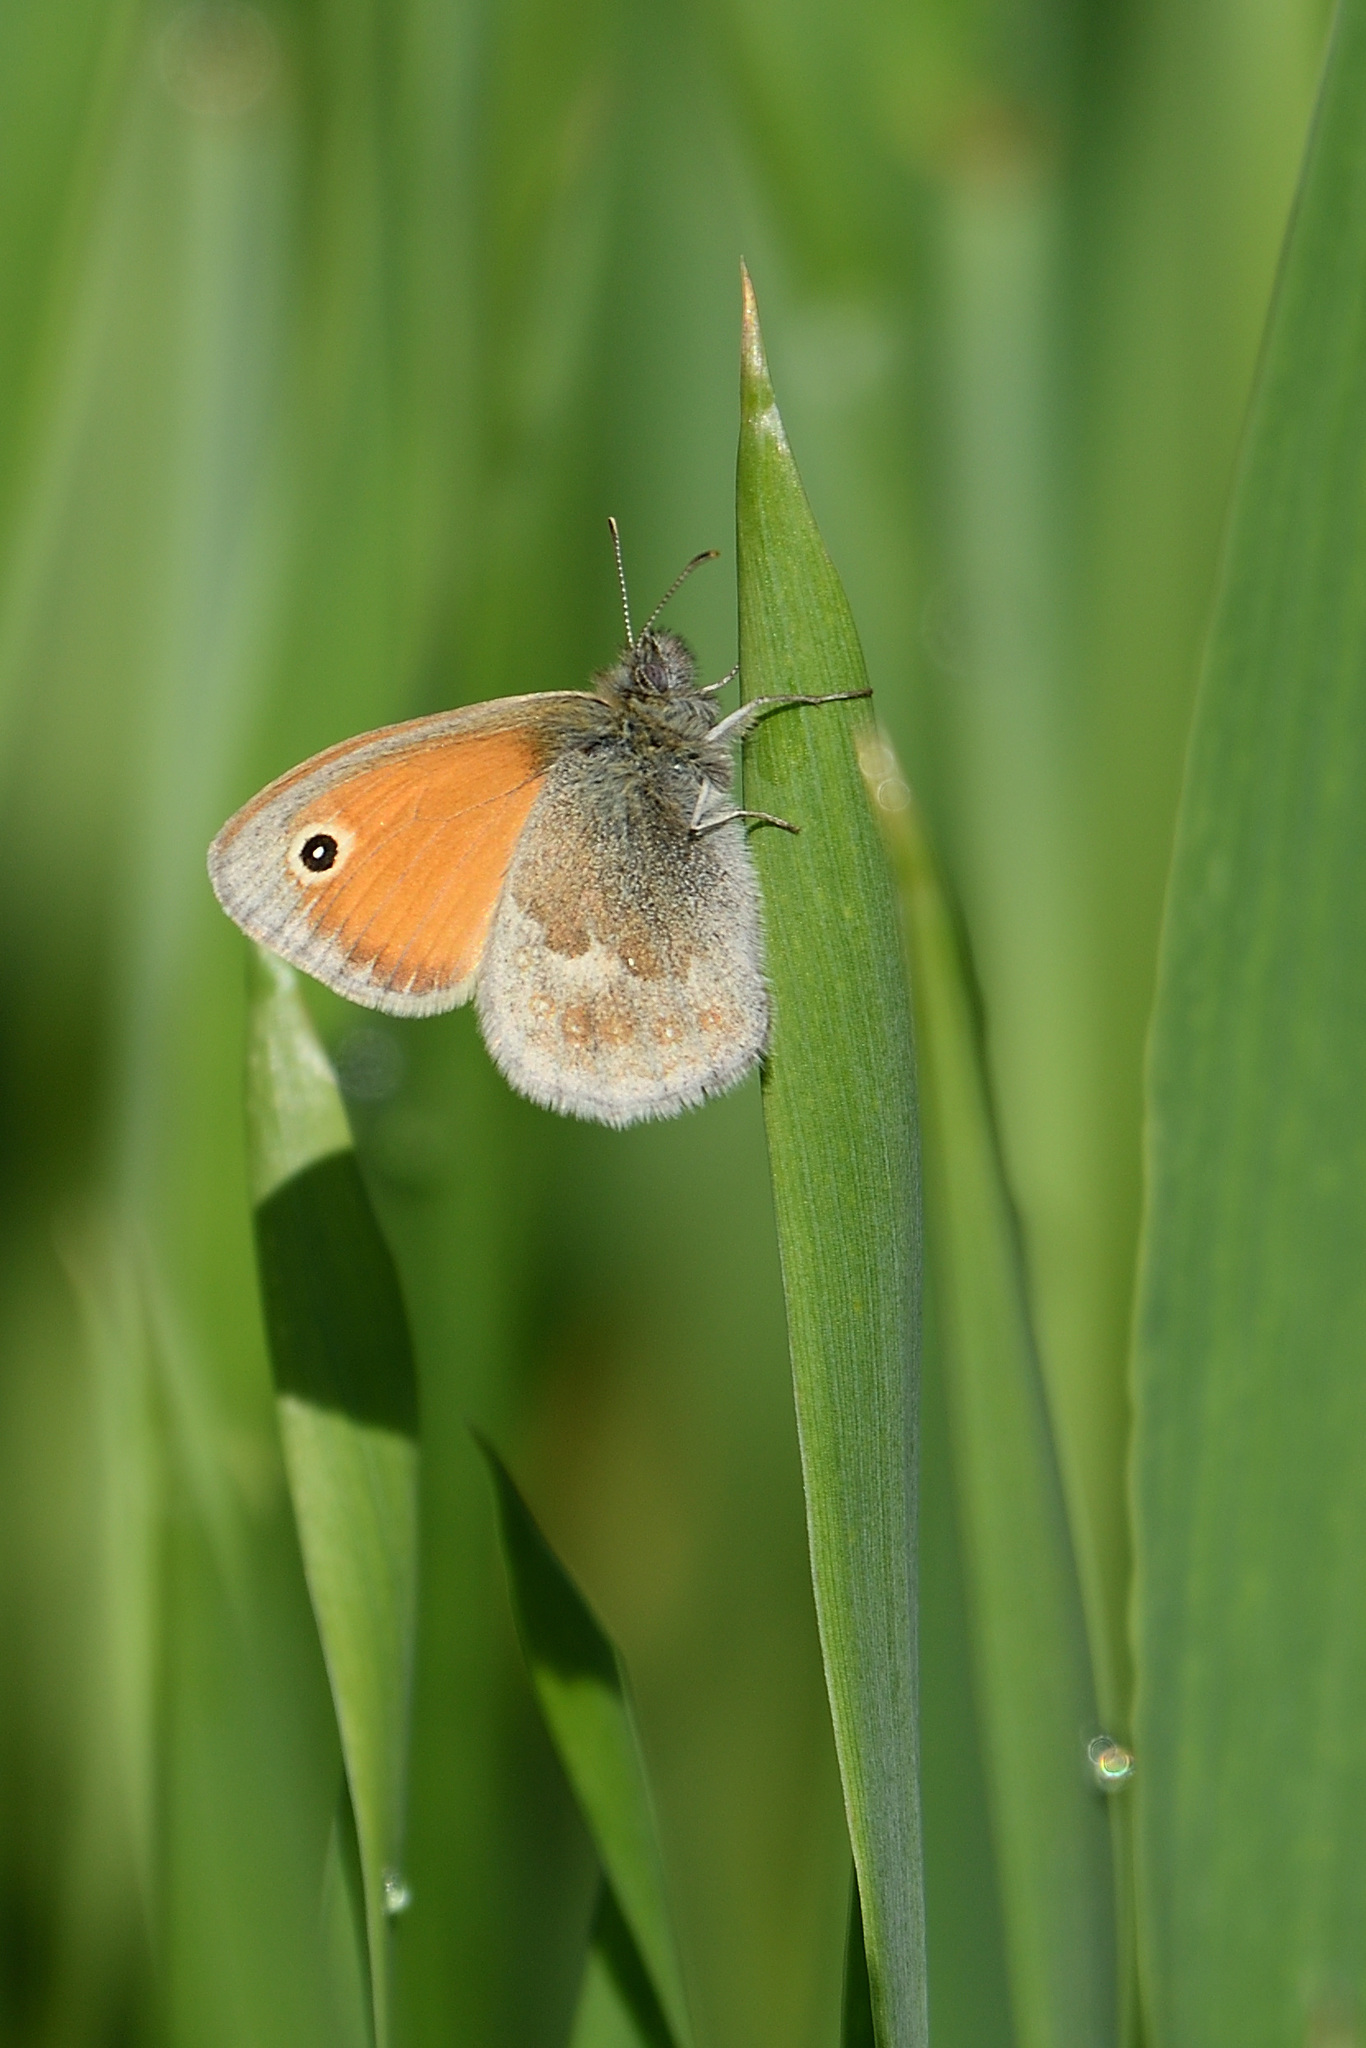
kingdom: Animalia
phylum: Arthropoda
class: Insecta
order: Lepidoptera
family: Nymphalidae
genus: Coenonympha
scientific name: Coenonympha pamphilus
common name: Small heath
